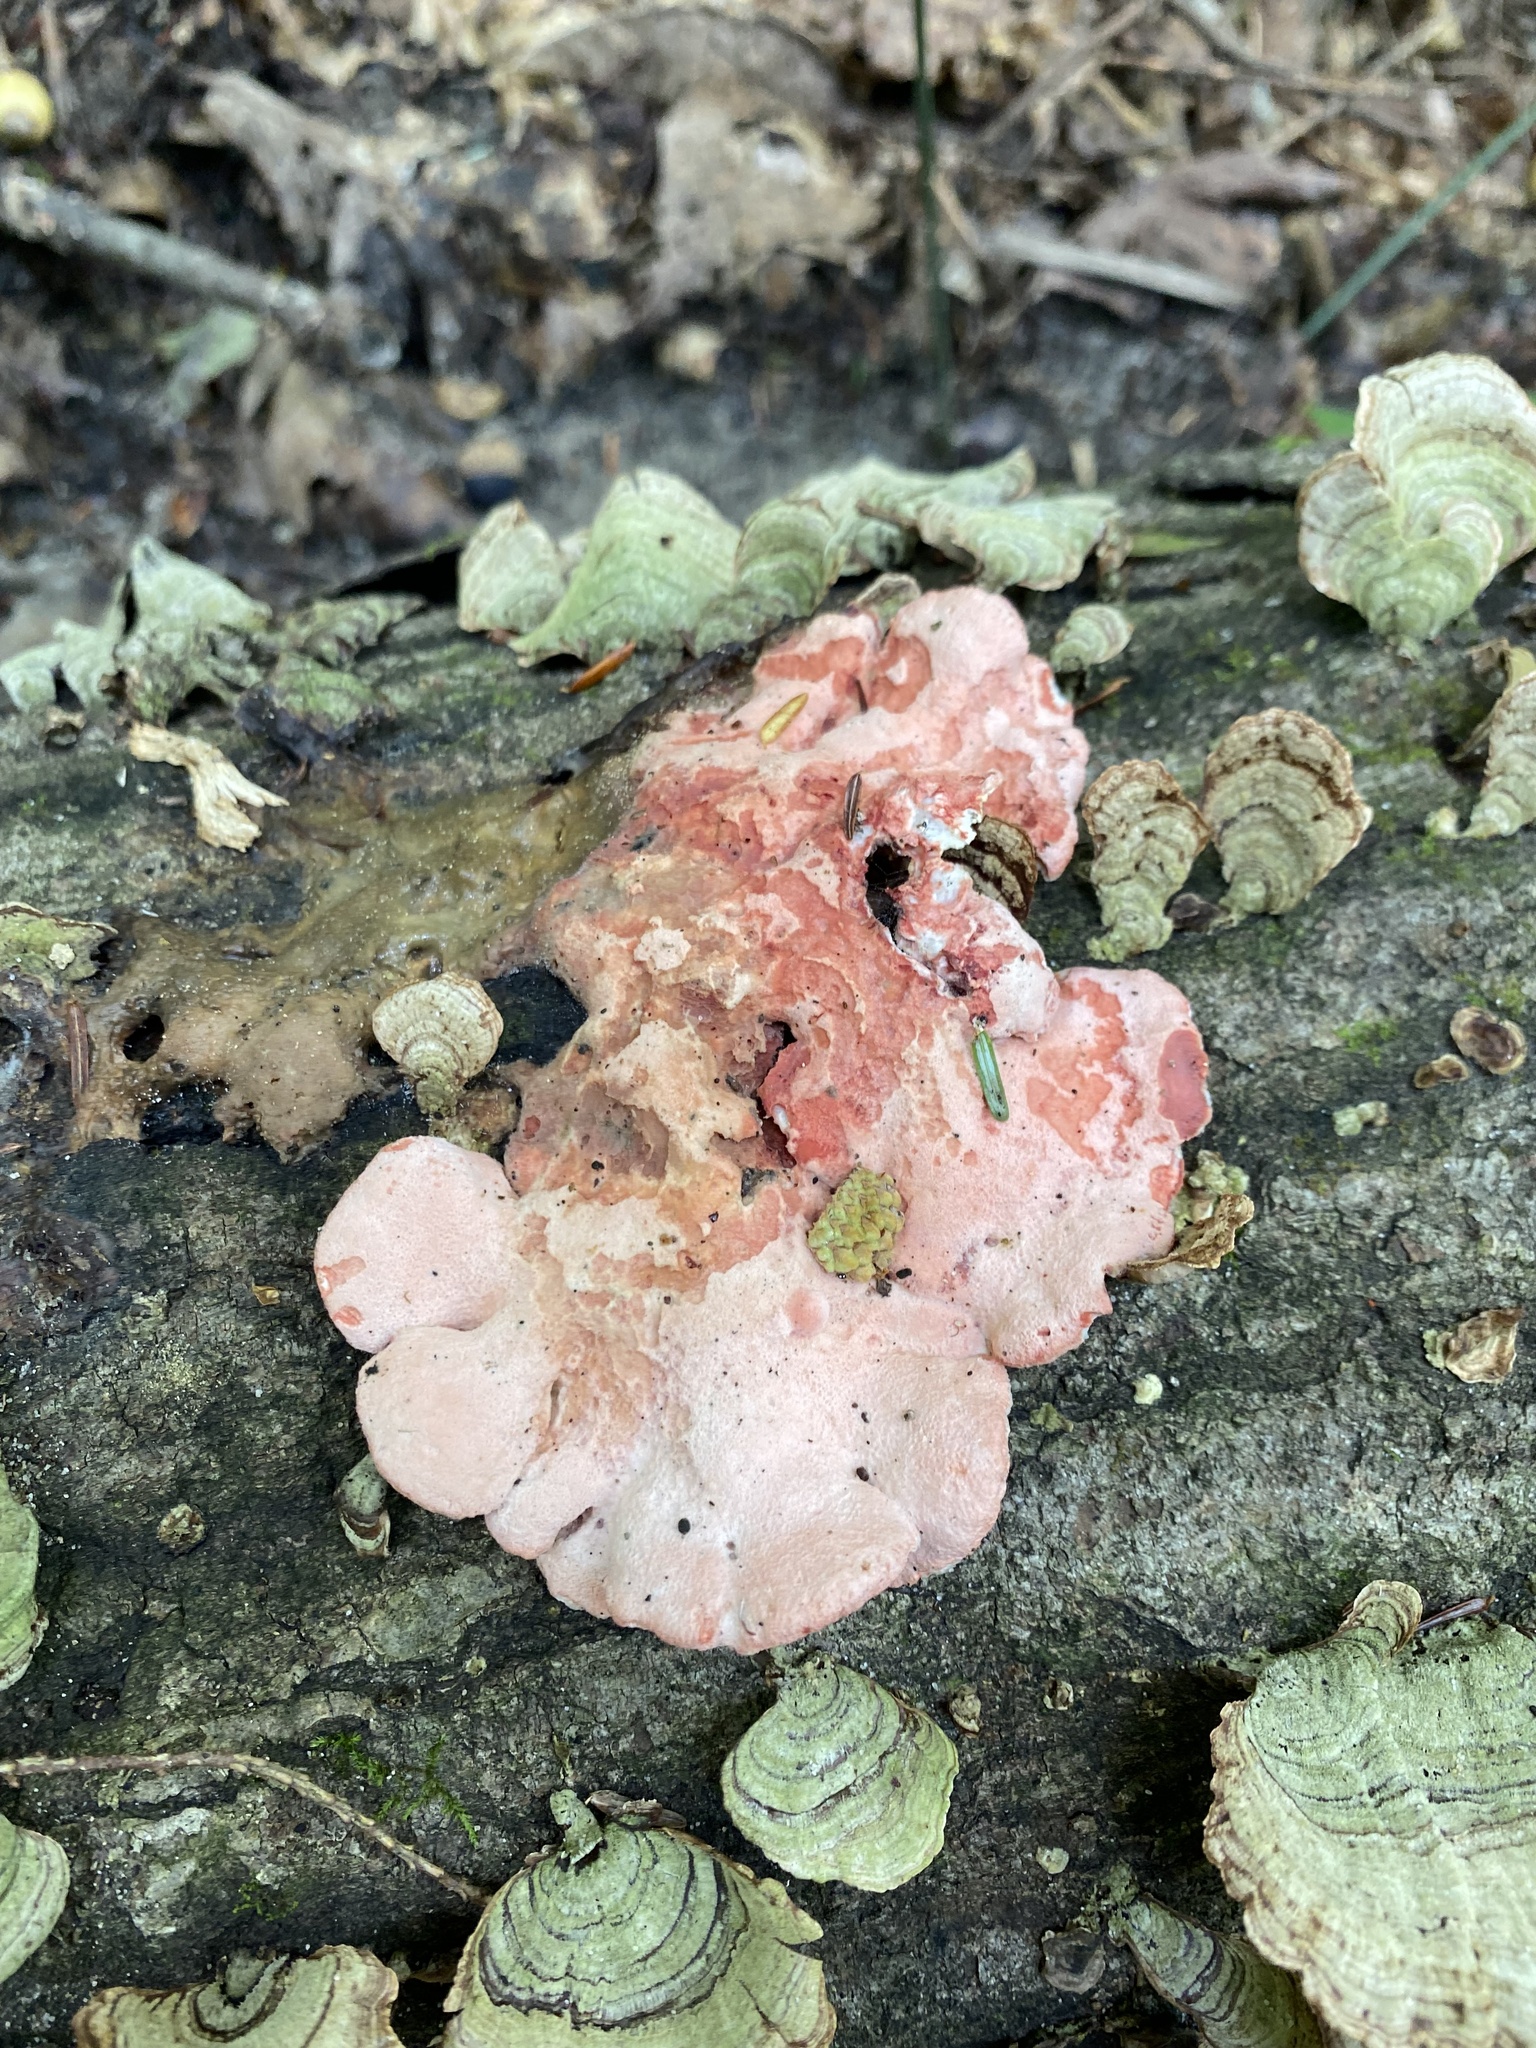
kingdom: Fungi
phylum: Basidiomycota
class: Agaricomycetes
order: Polyporales
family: Irpicaceae
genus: Byssomerulius
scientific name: Byssomerulius incarnatus
